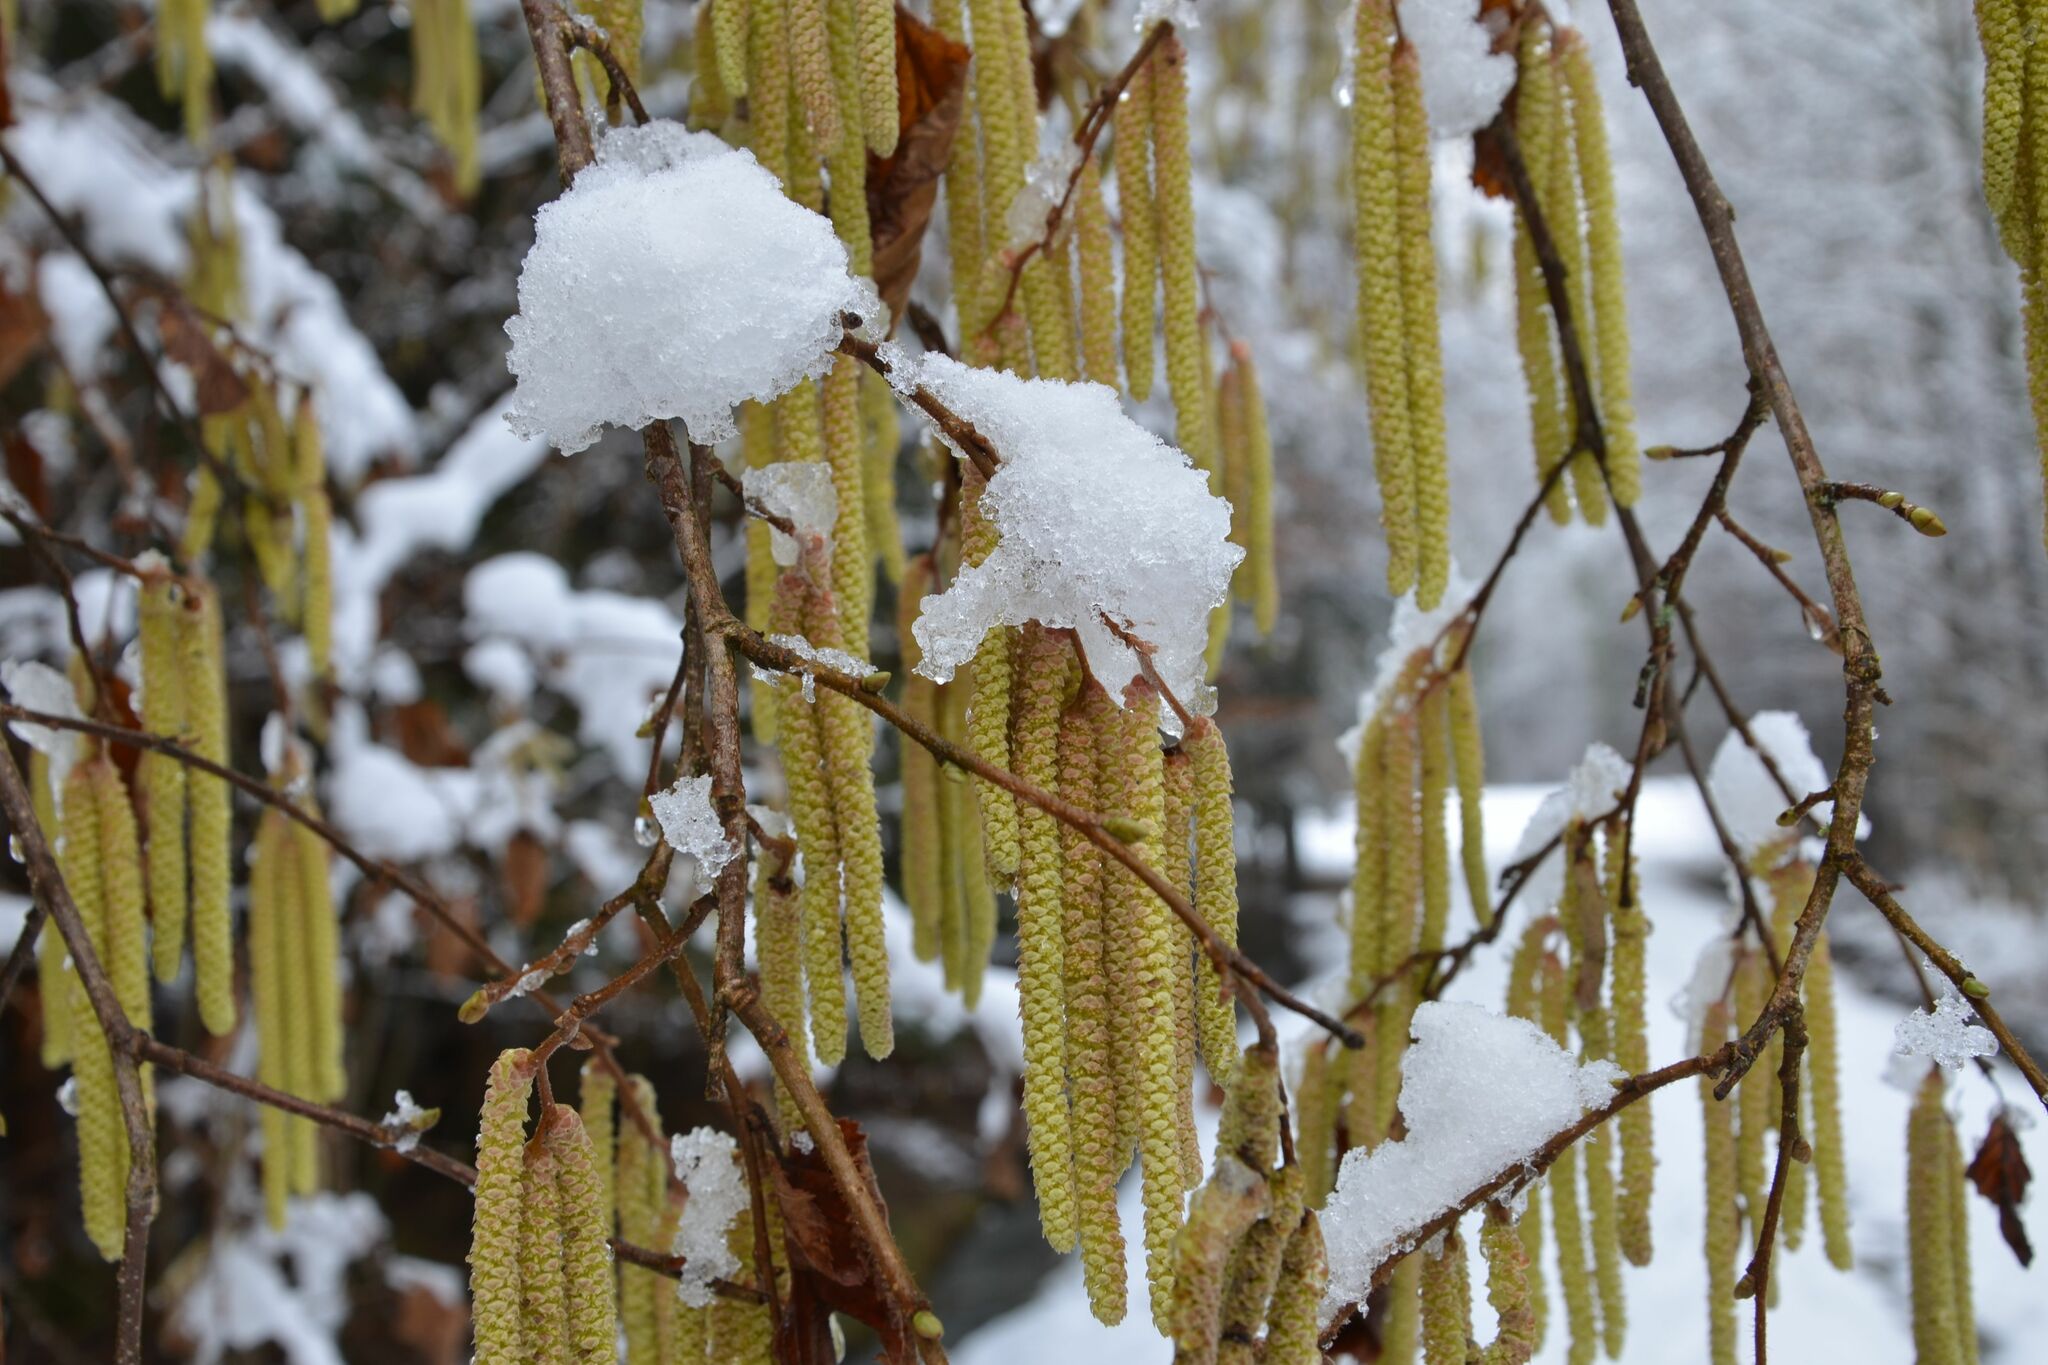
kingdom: Plantae
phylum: Tracheophyta
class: Magnoliopsida
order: Fagales
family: Betulaceae
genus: Corylus
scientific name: Corylus avellana
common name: European hazel
